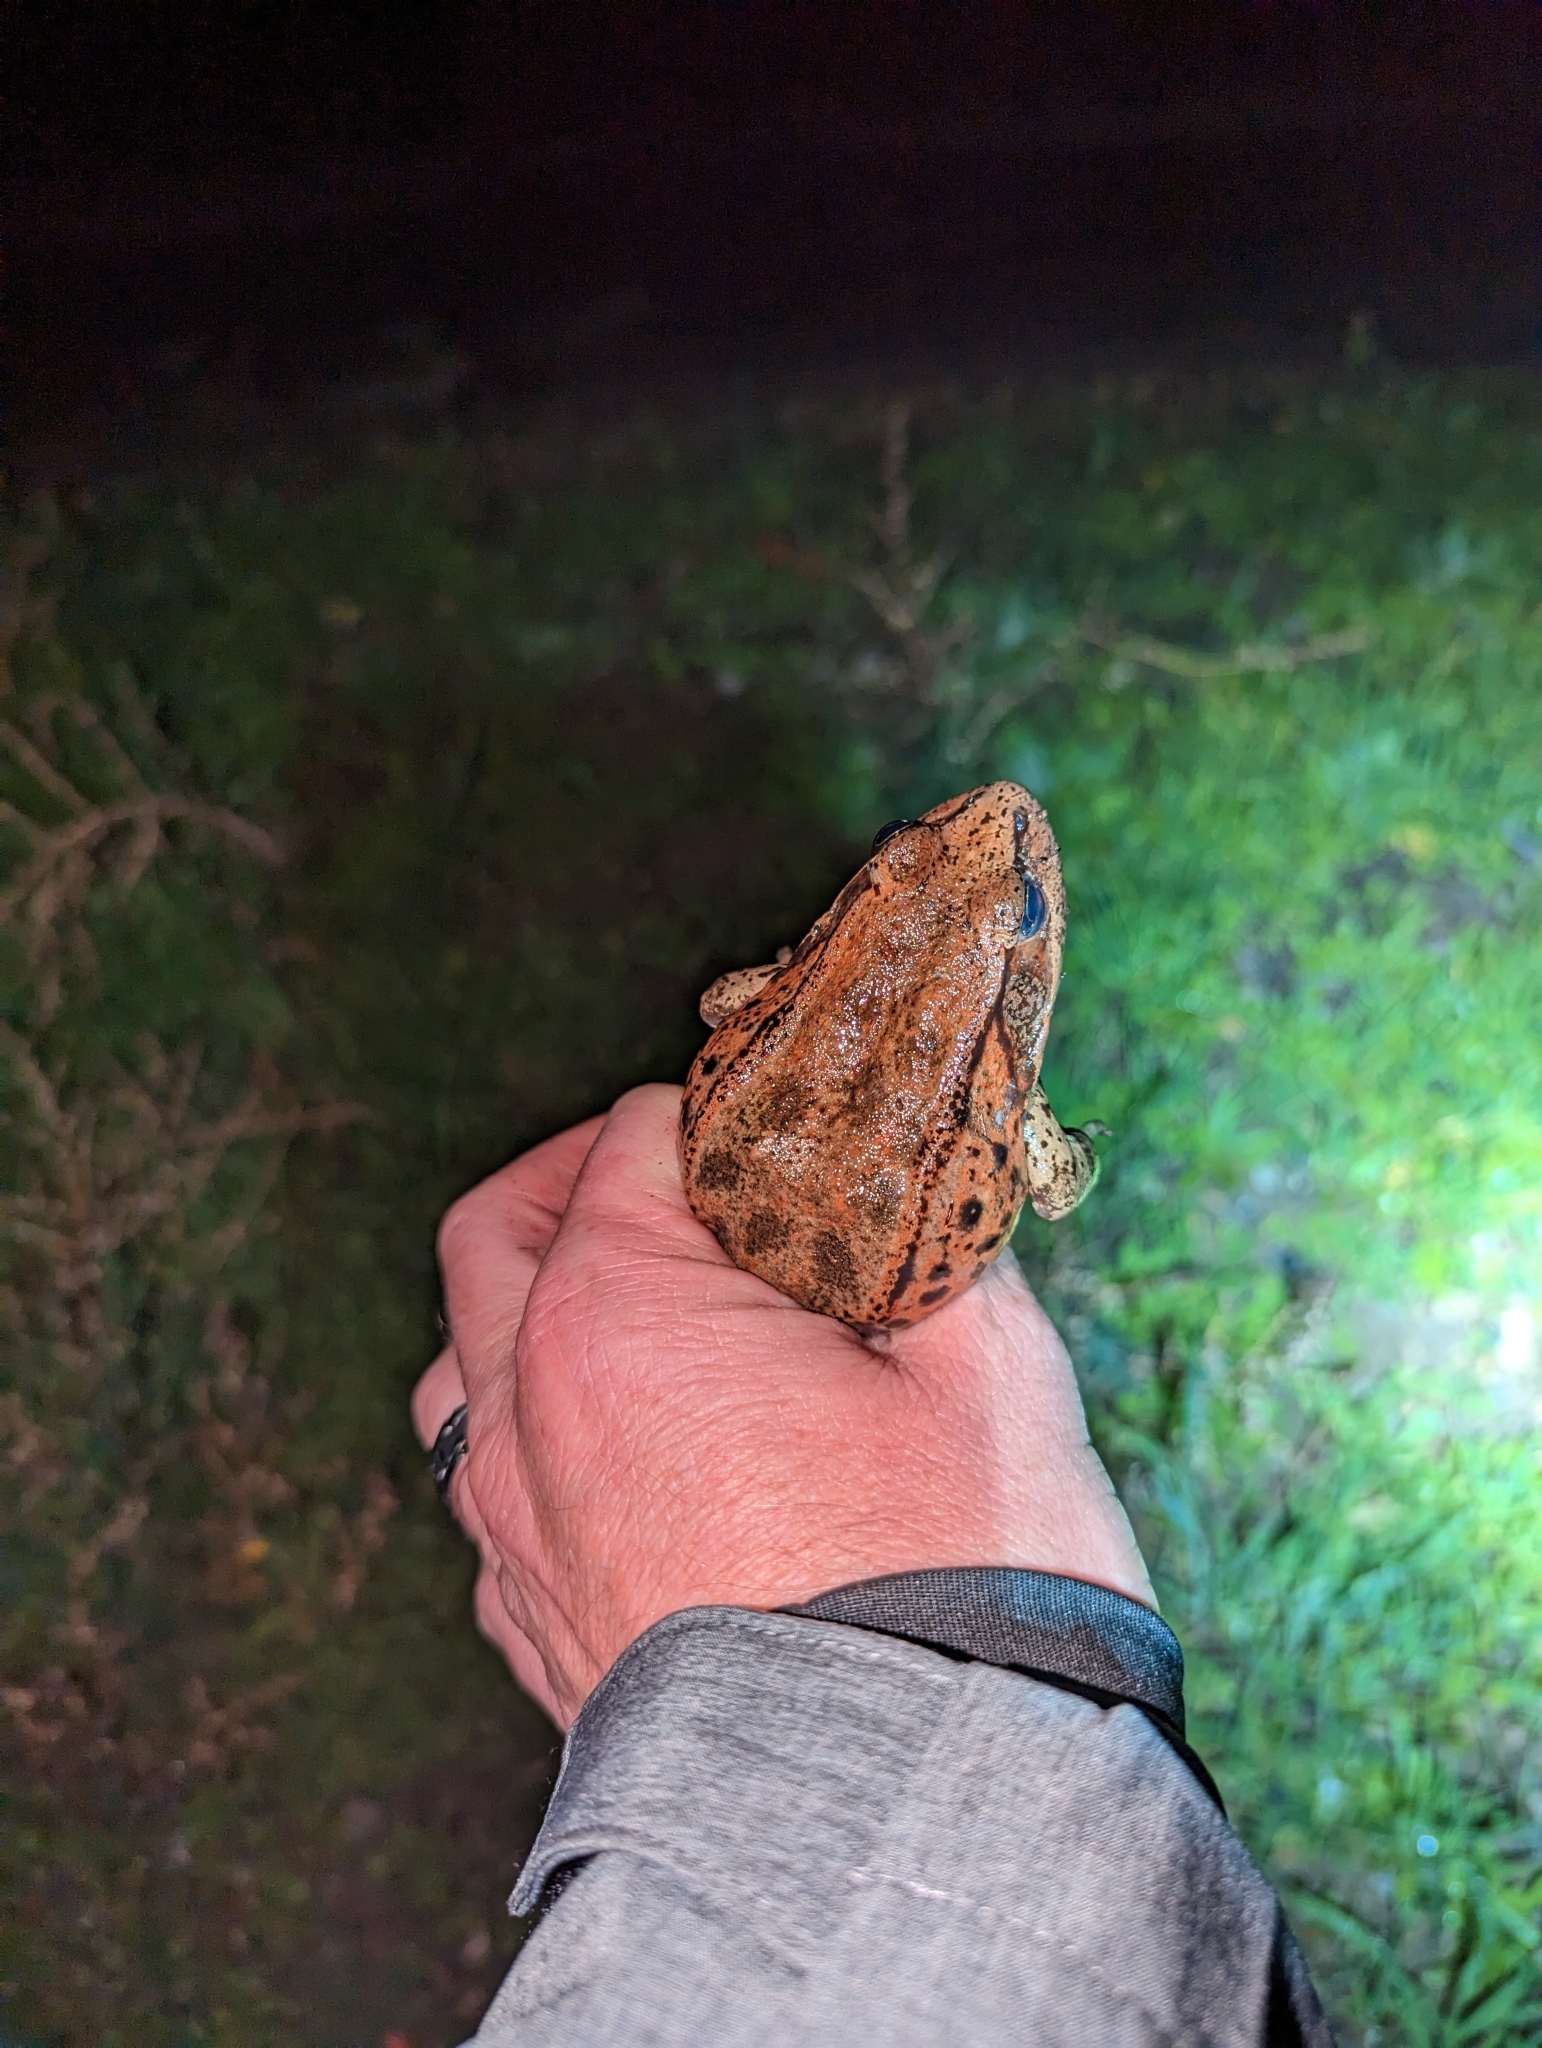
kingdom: Animalia
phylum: Chordata
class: Amphibia
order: Anura
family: Ranidae
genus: Rana
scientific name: Rana draytonii
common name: California red-legged frog
